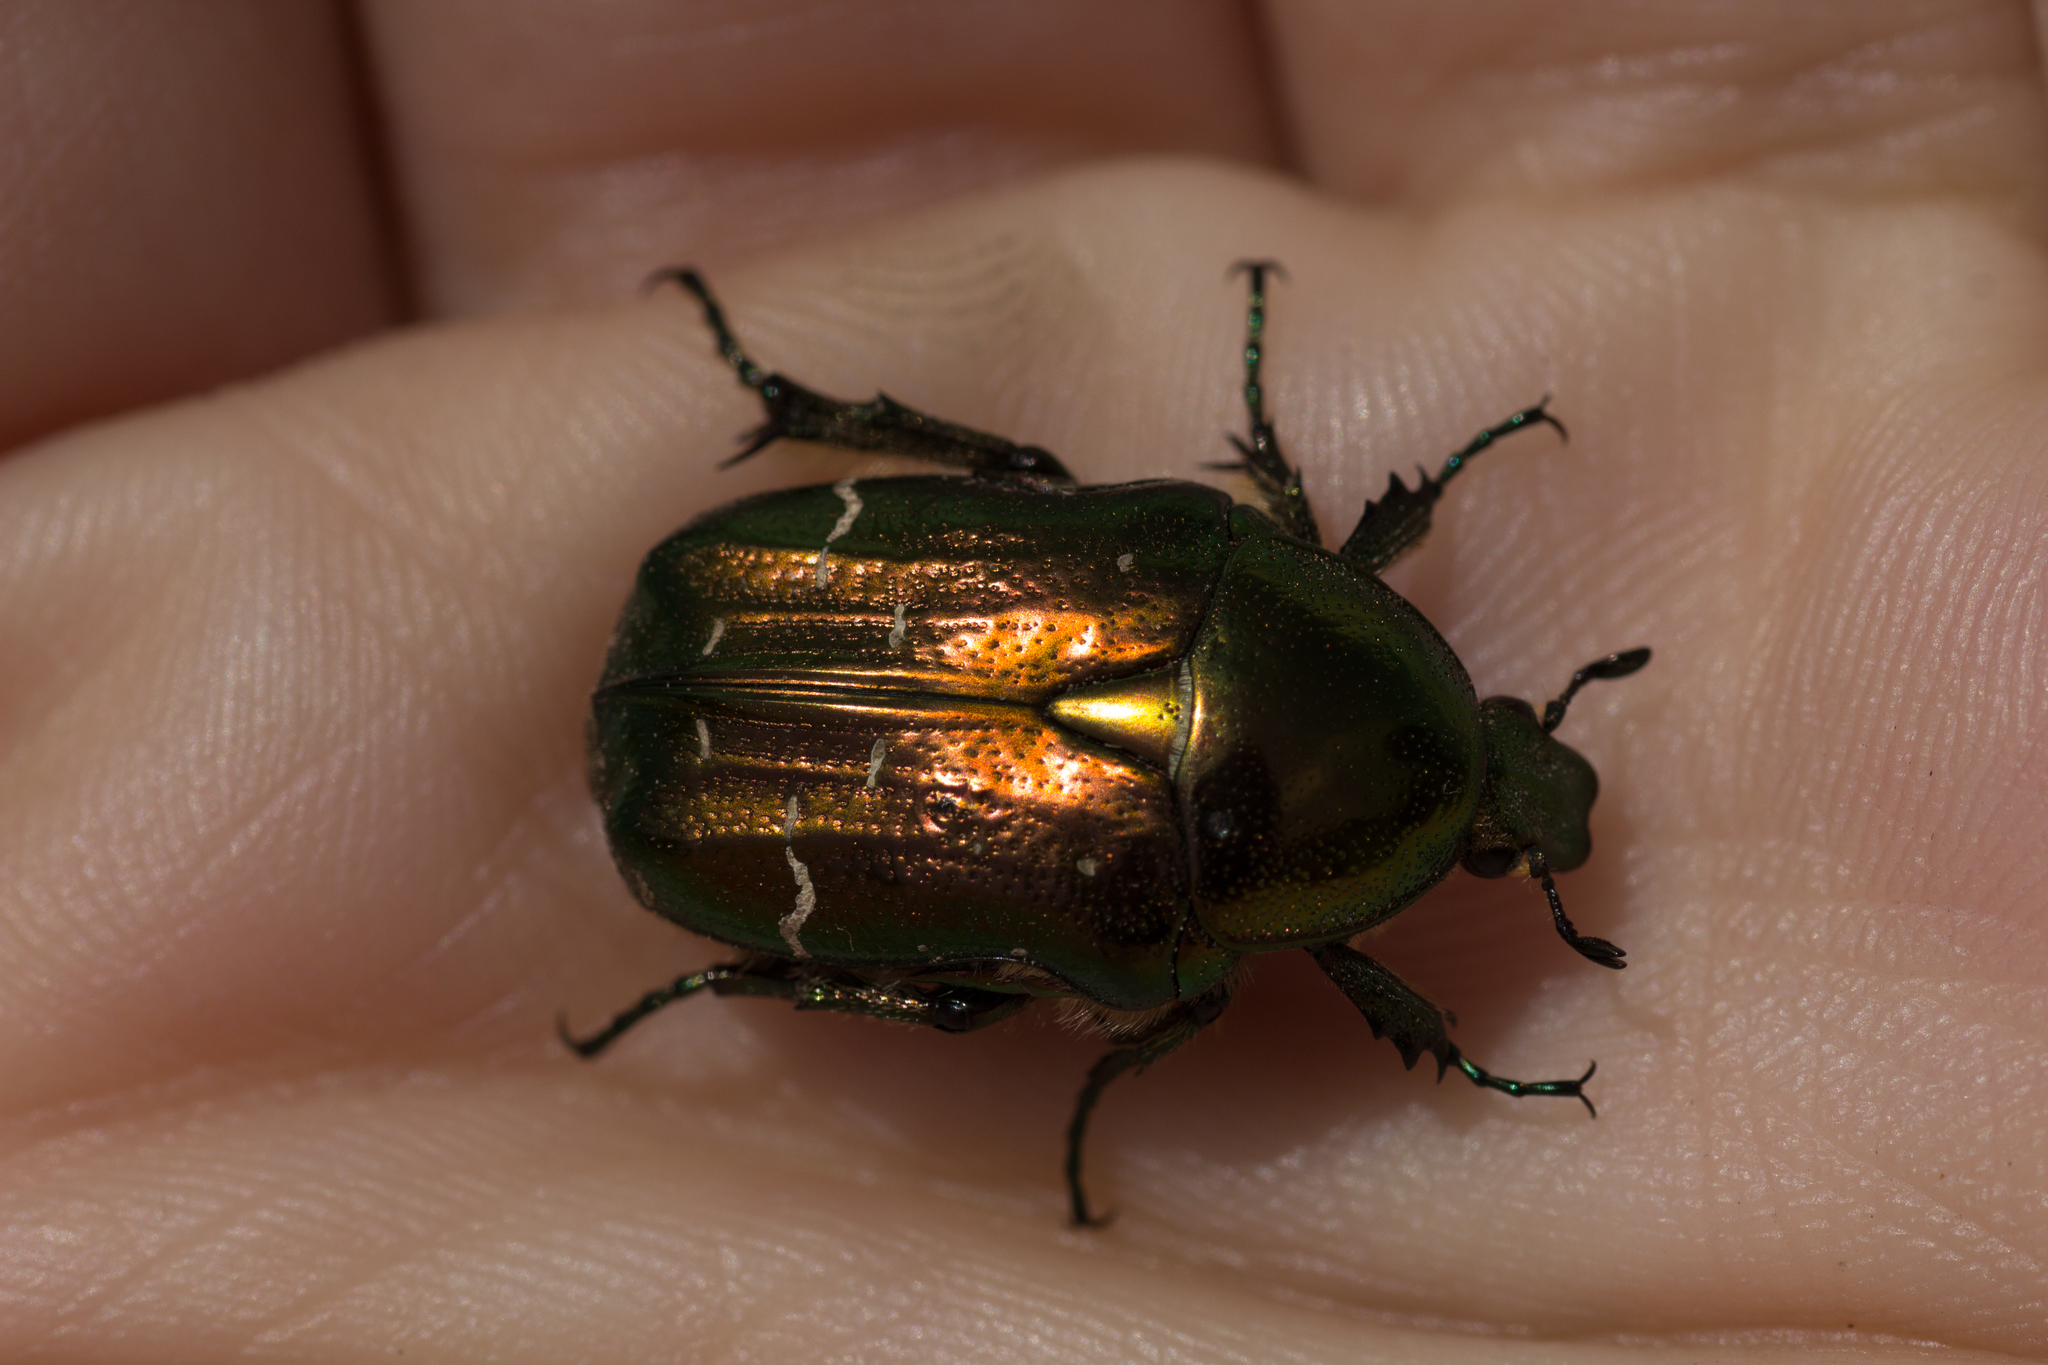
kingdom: Animalia
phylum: Arthropoda
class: Insecta
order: Coleoptera
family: Scarabaeidae
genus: Cetonia
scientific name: Cetonia aurata
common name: Rose chafer
